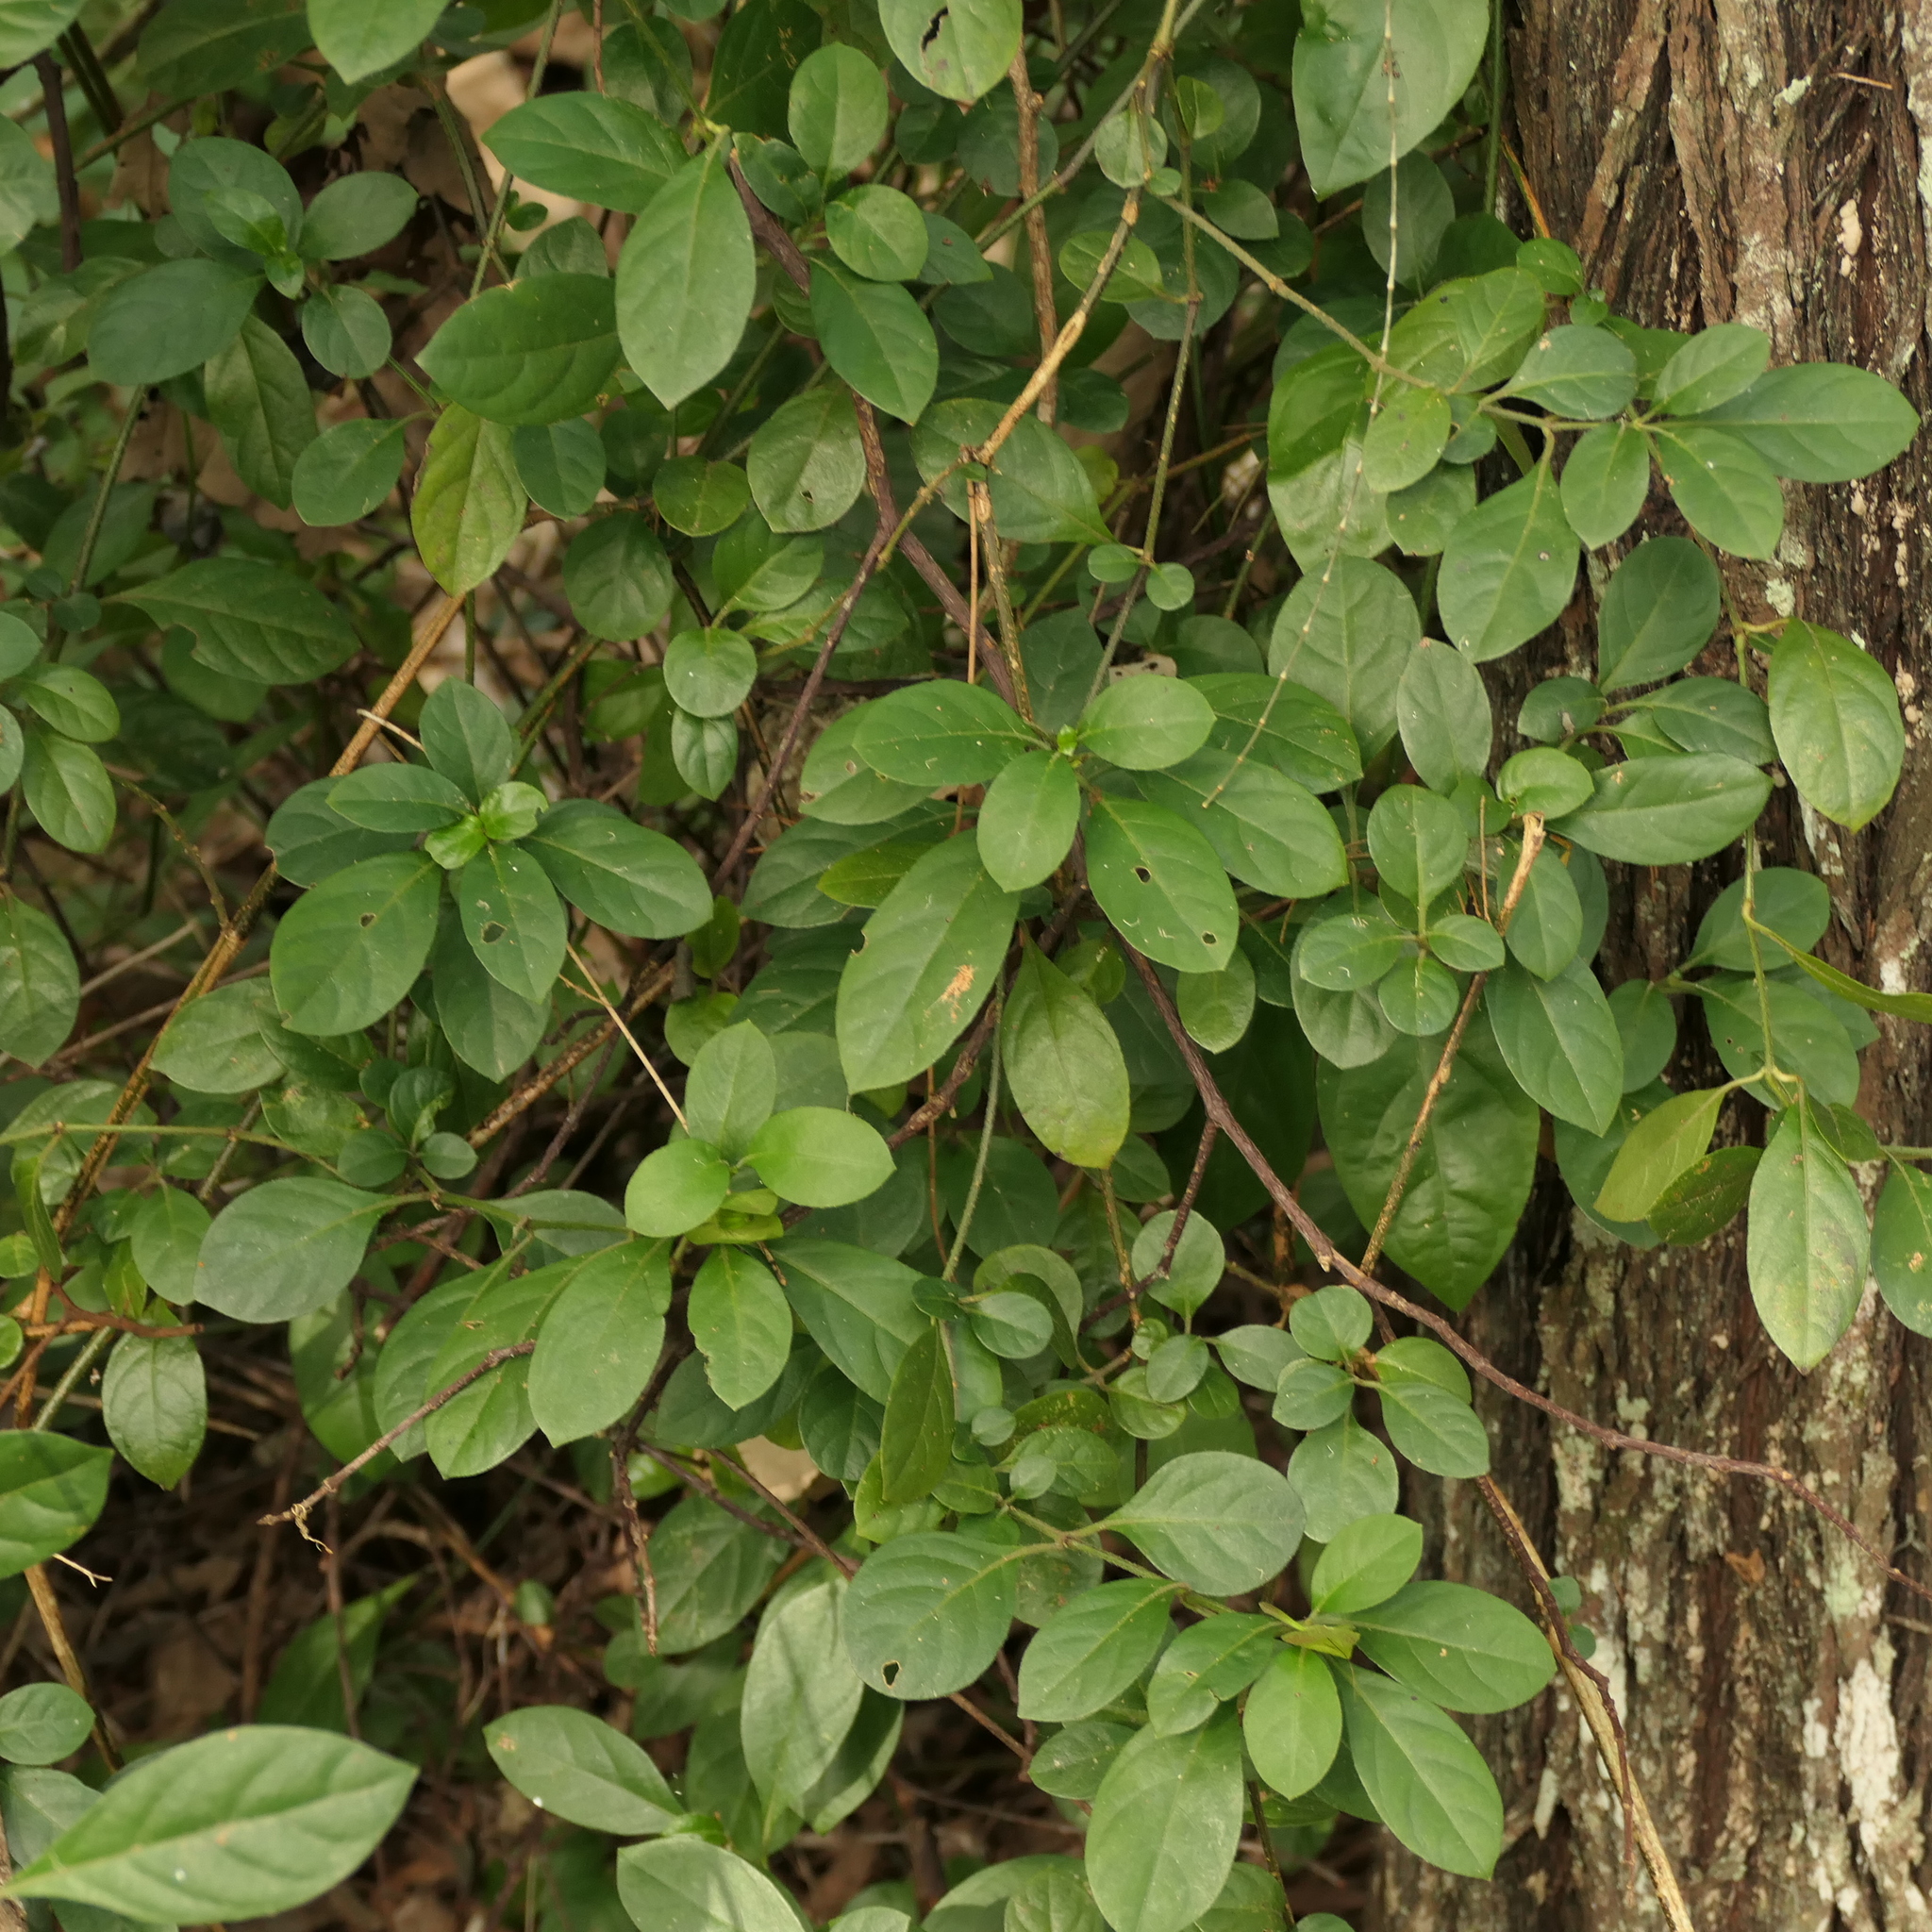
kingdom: Plantae
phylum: Tracheophyta
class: Magnoliopsida
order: Lamiales
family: Acanthaceae
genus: Barleria
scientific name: Barleria repens
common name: Pink-ruellia
